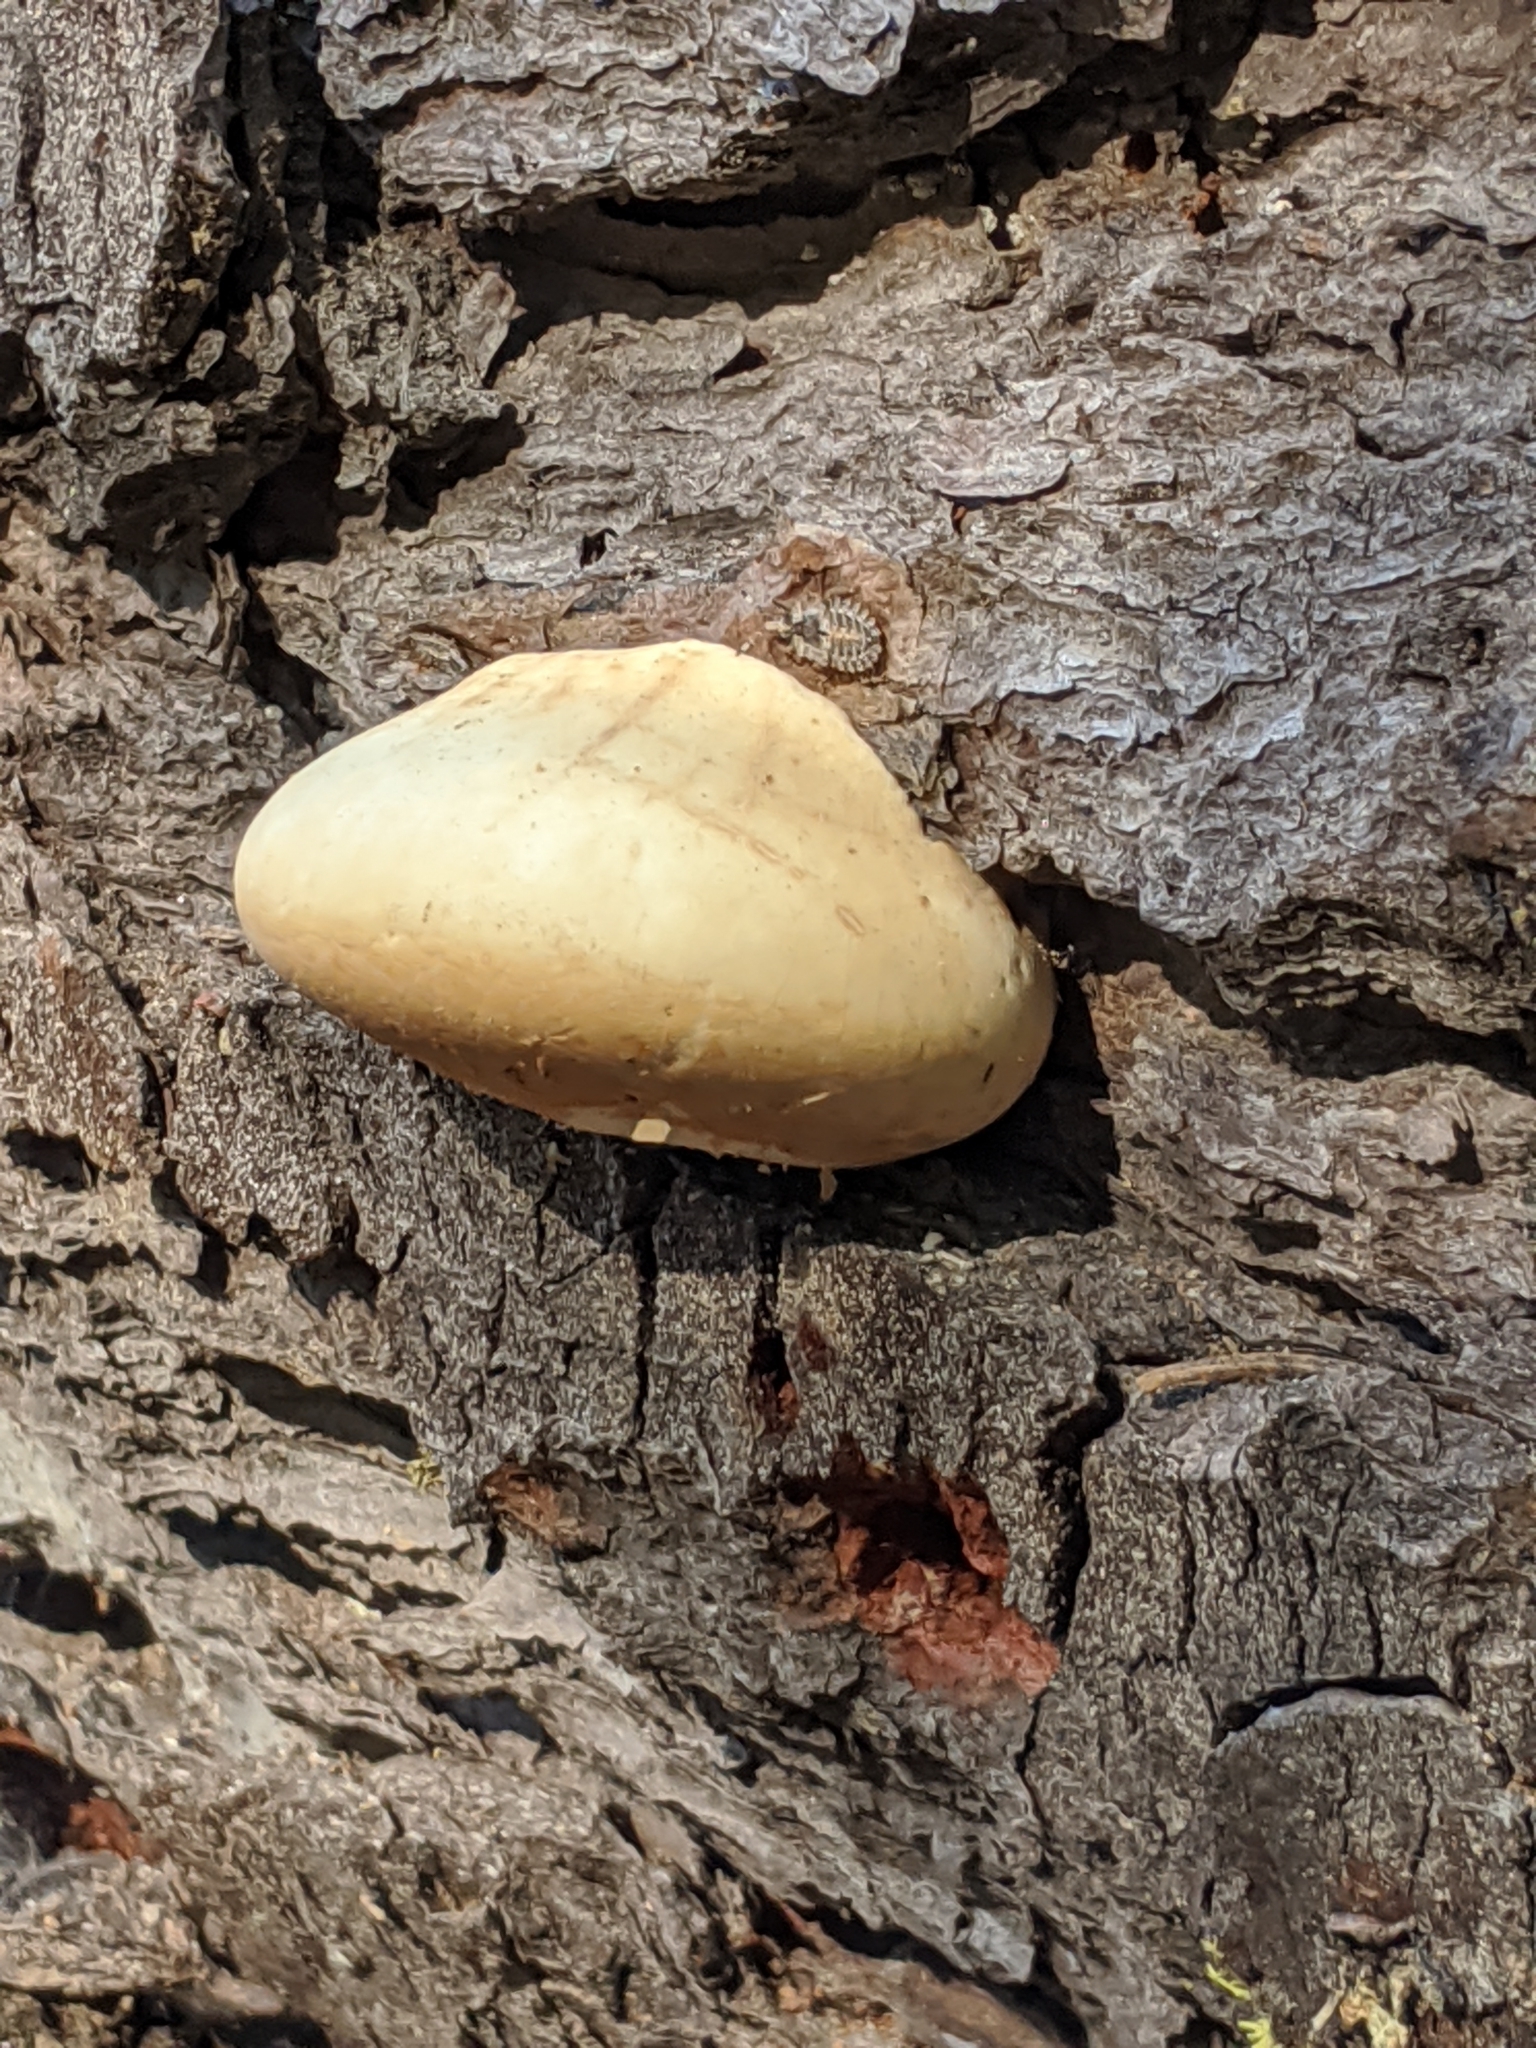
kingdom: Fungi
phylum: Basidiomycota
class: Agaricomycetes
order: Polyporales
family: Polyporaceae
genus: Cryptoporus
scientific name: Cryptoporus volvatus
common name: Veiled polypore
